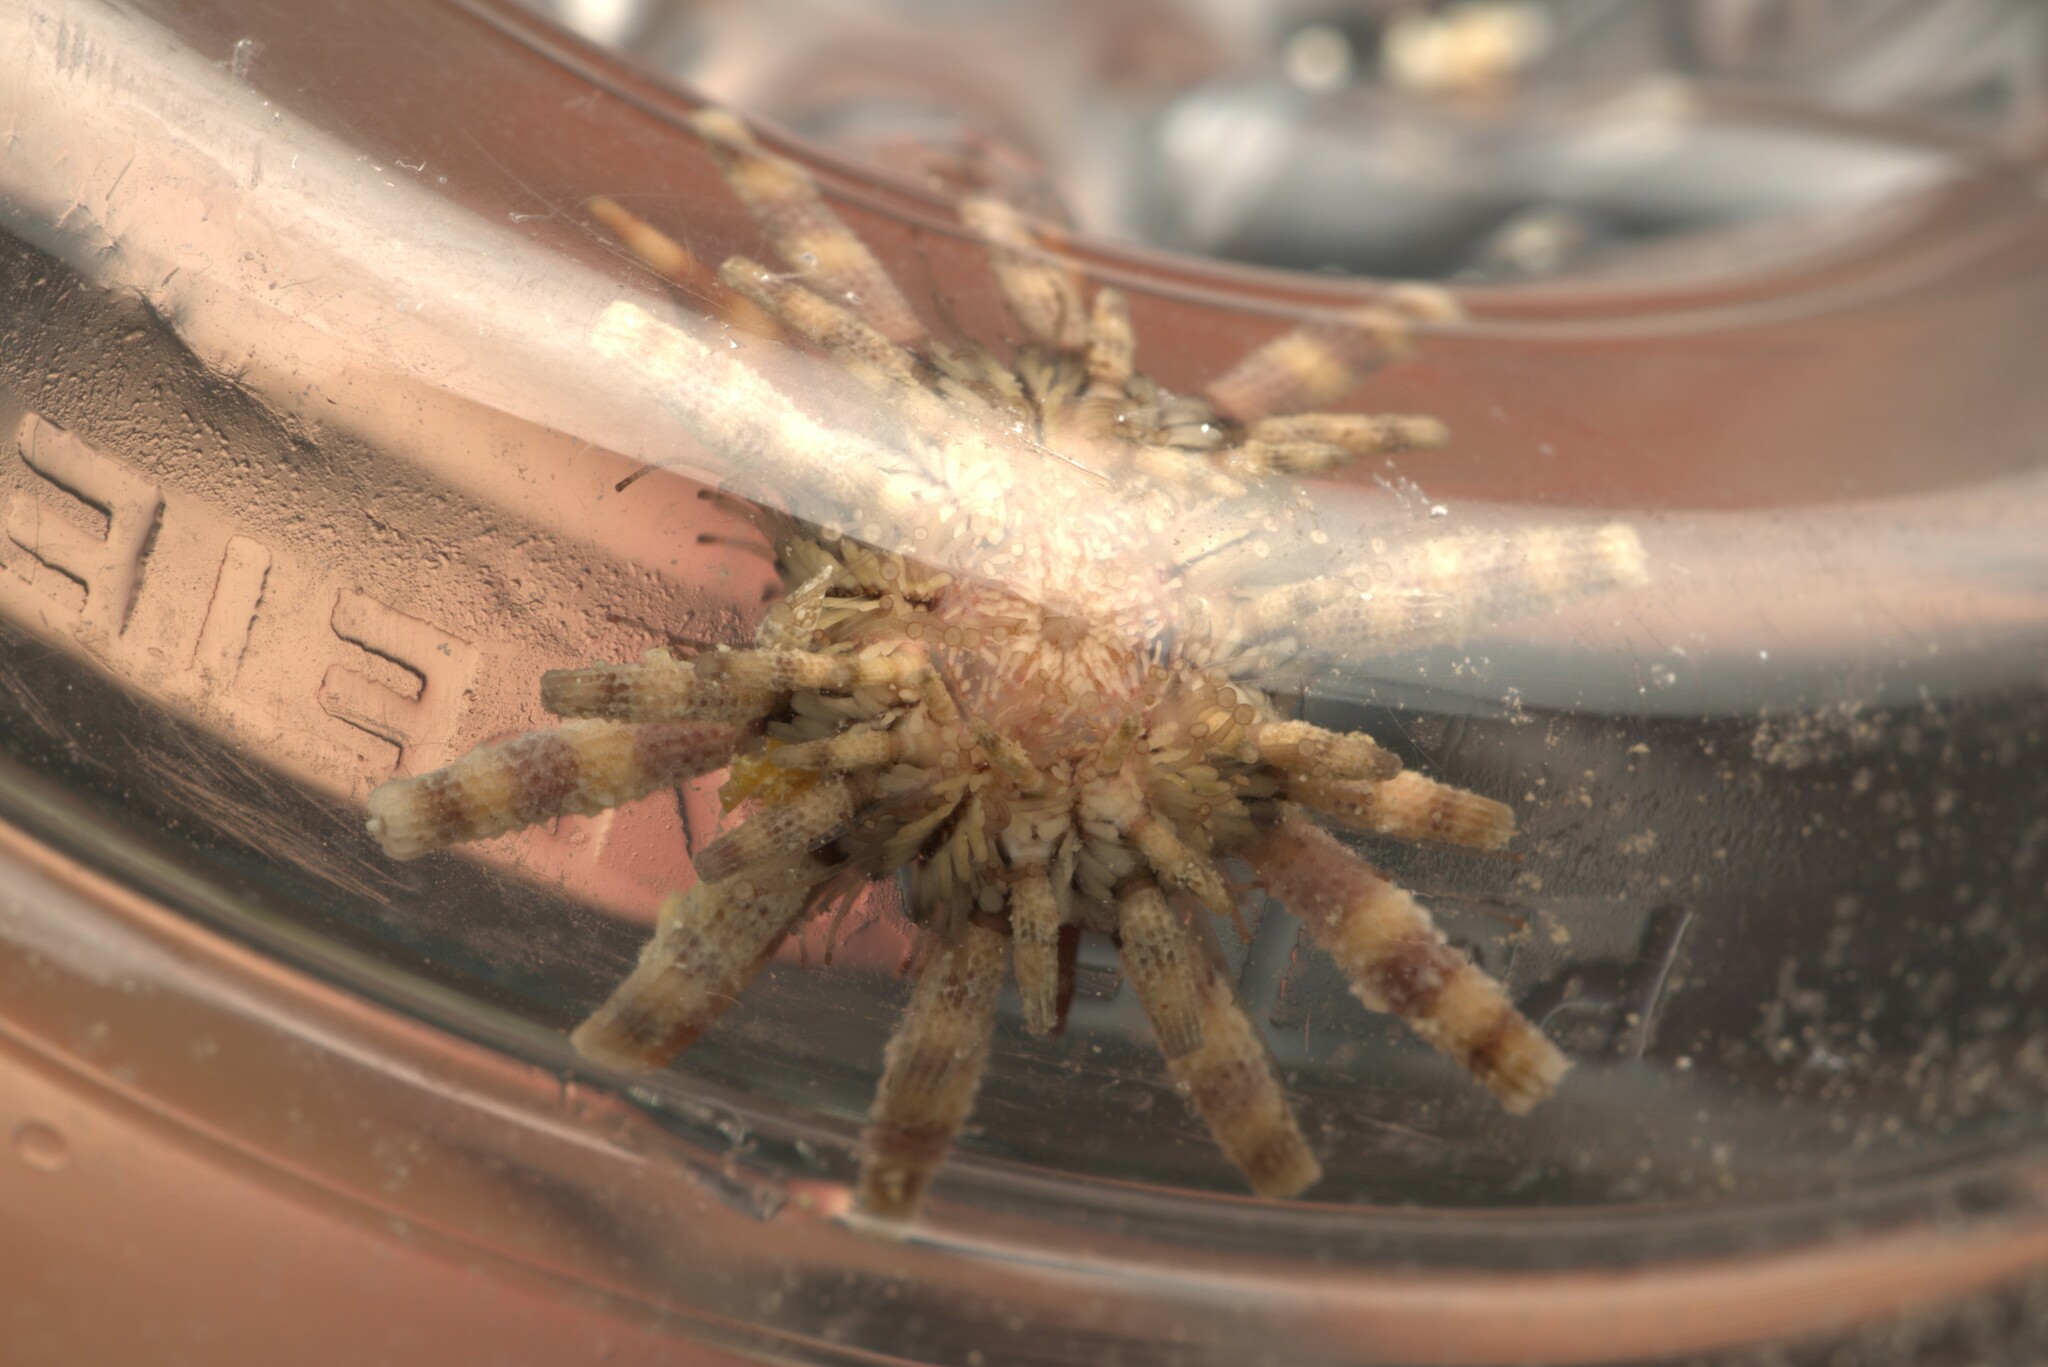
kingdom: Animalia
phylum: Echinodermata
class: Echinoidea
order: Cidaroida
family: Cidaridae
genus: Eucidaris
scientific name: Eucidaris tribuloides
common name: Slate pencil urchin
